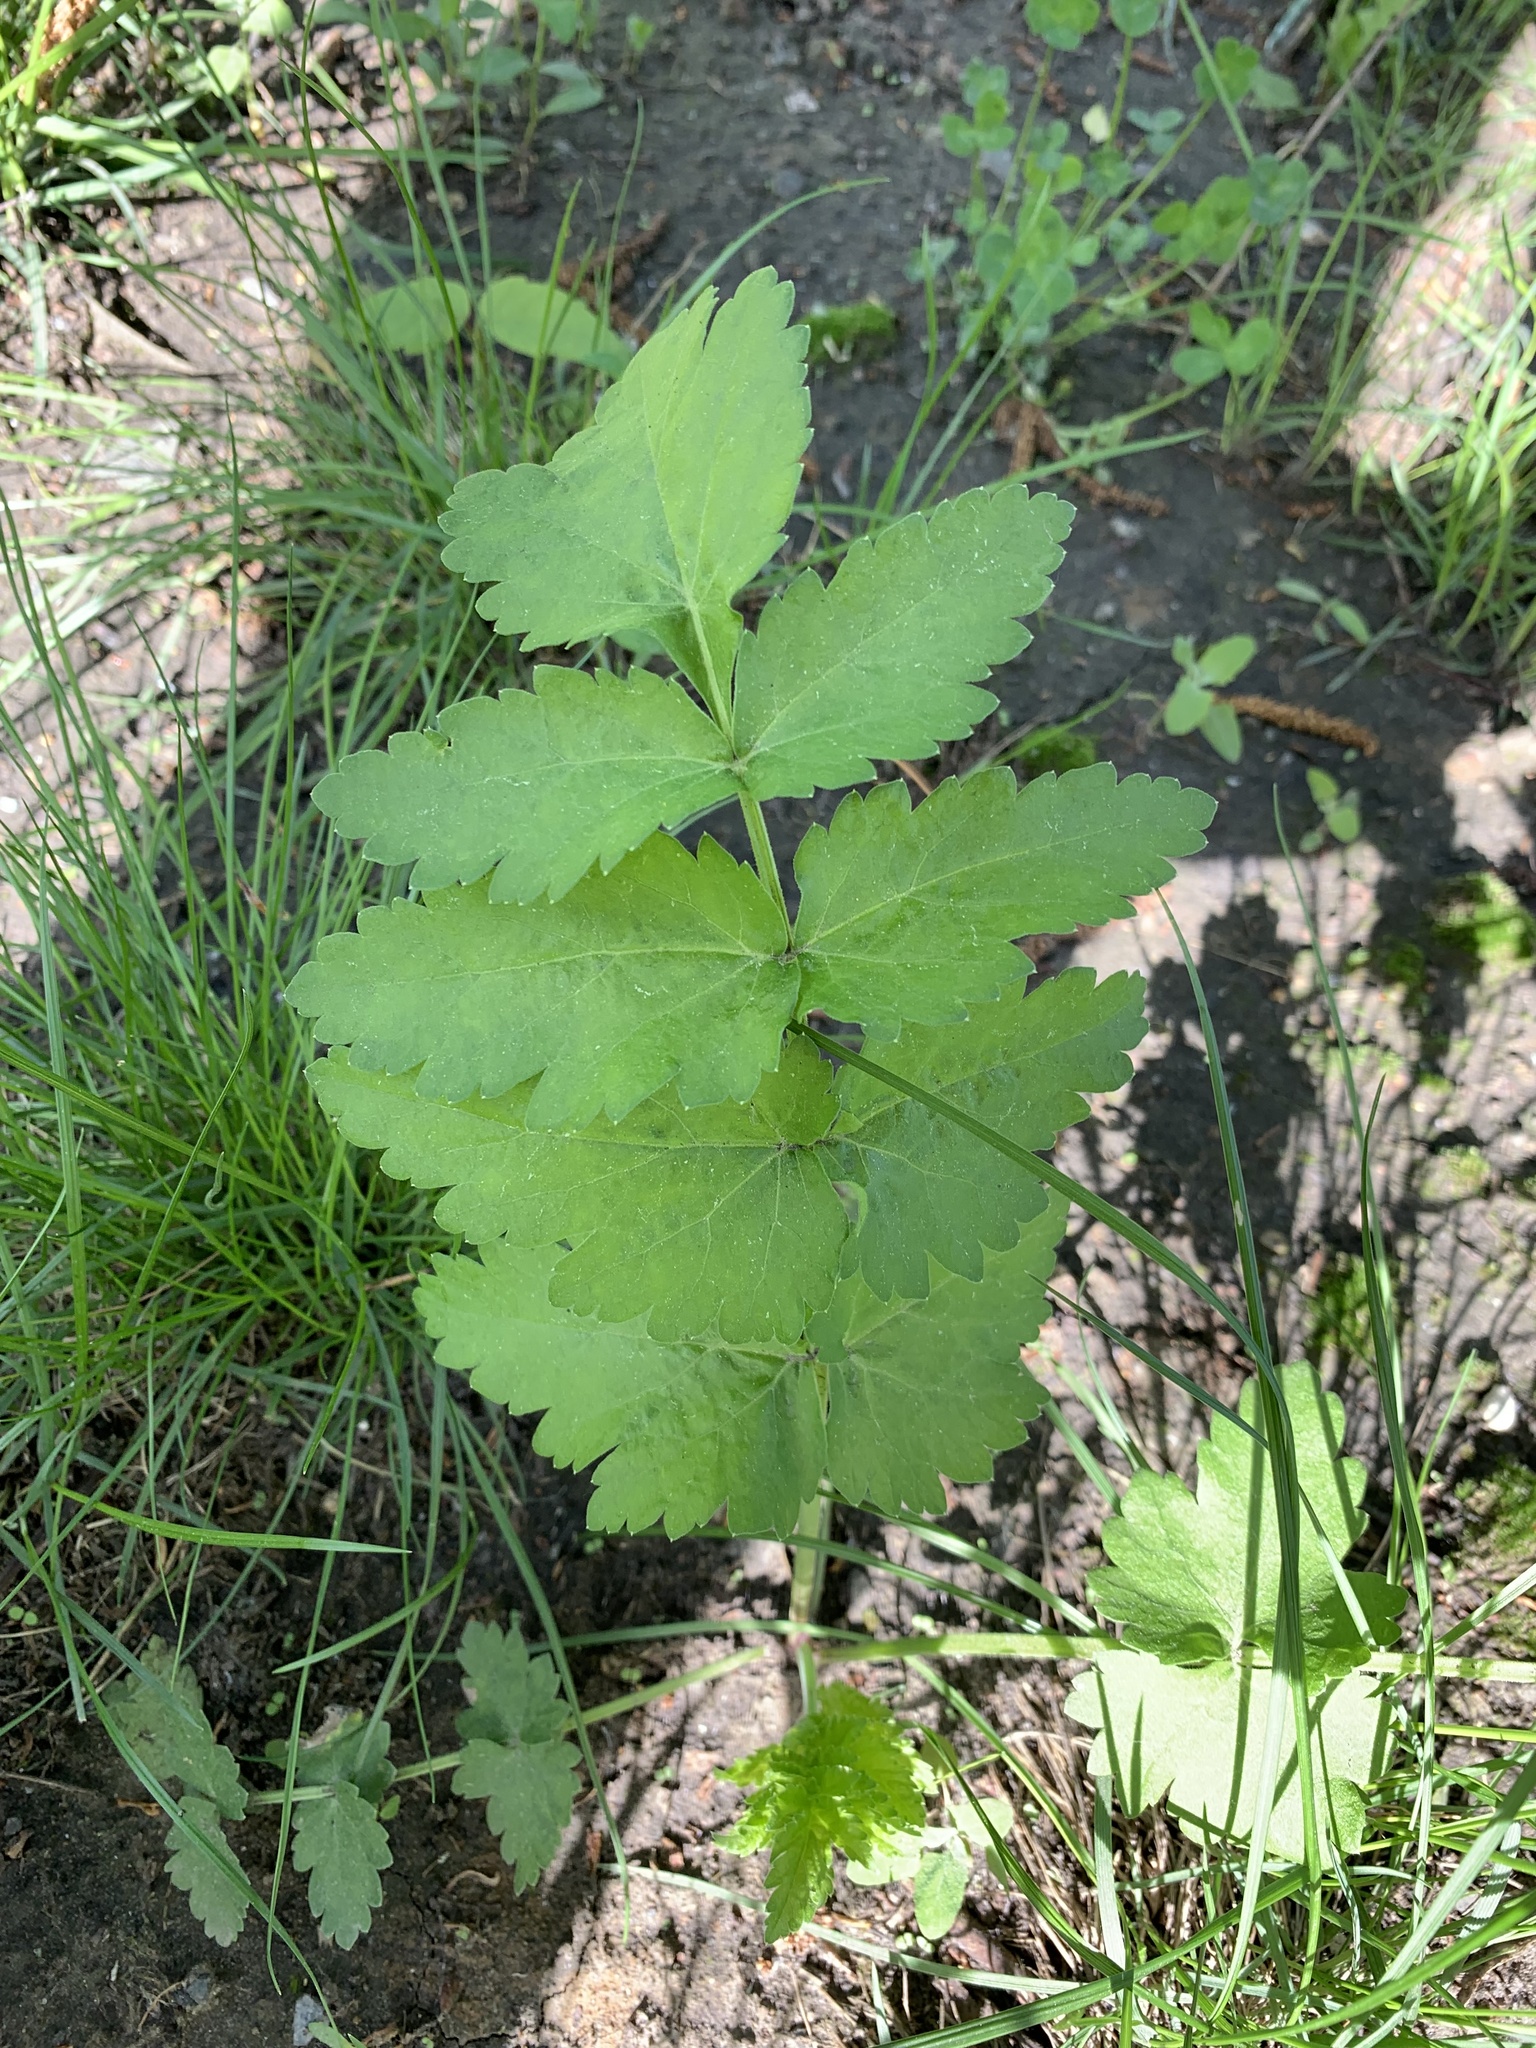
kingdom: Plantae
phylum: Tracheophyta
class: Magnoliopsida
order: Apiales
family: Apiaceae
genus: Pastinaca
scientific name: Pastinaca sativa
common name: Wild parsnip
